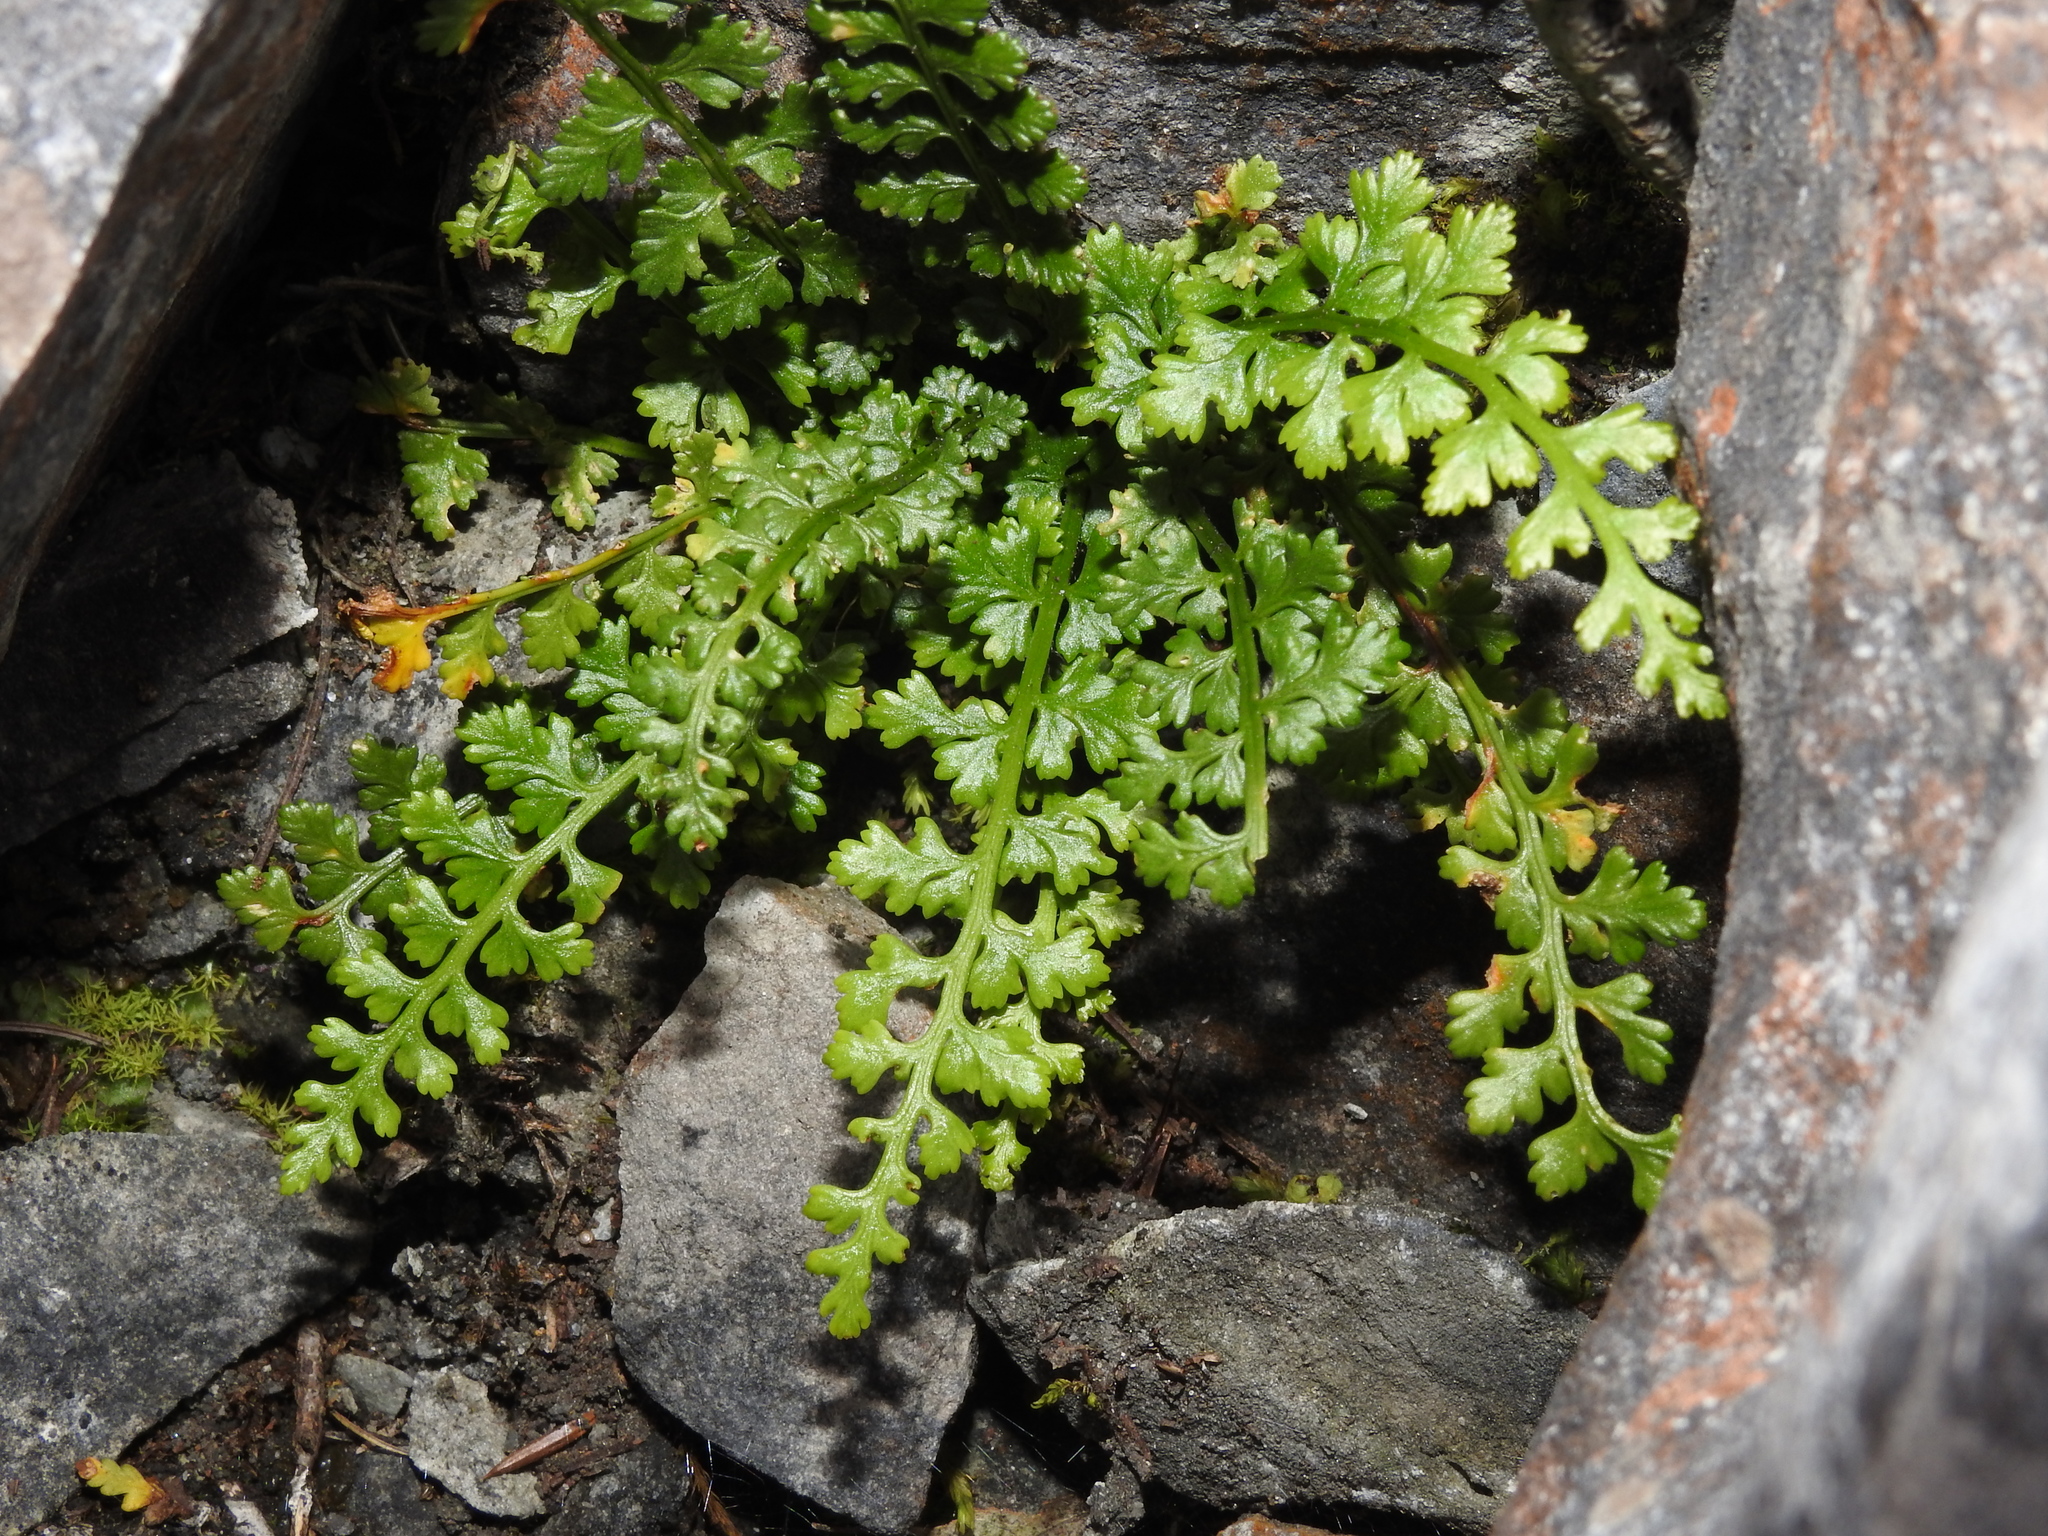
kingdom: Plantae
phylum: Tracheophyta
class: Polypodiopsida
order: Polypodiales
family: Aspleniaceae
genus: Asplenium
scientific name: Asplenium exiguum
